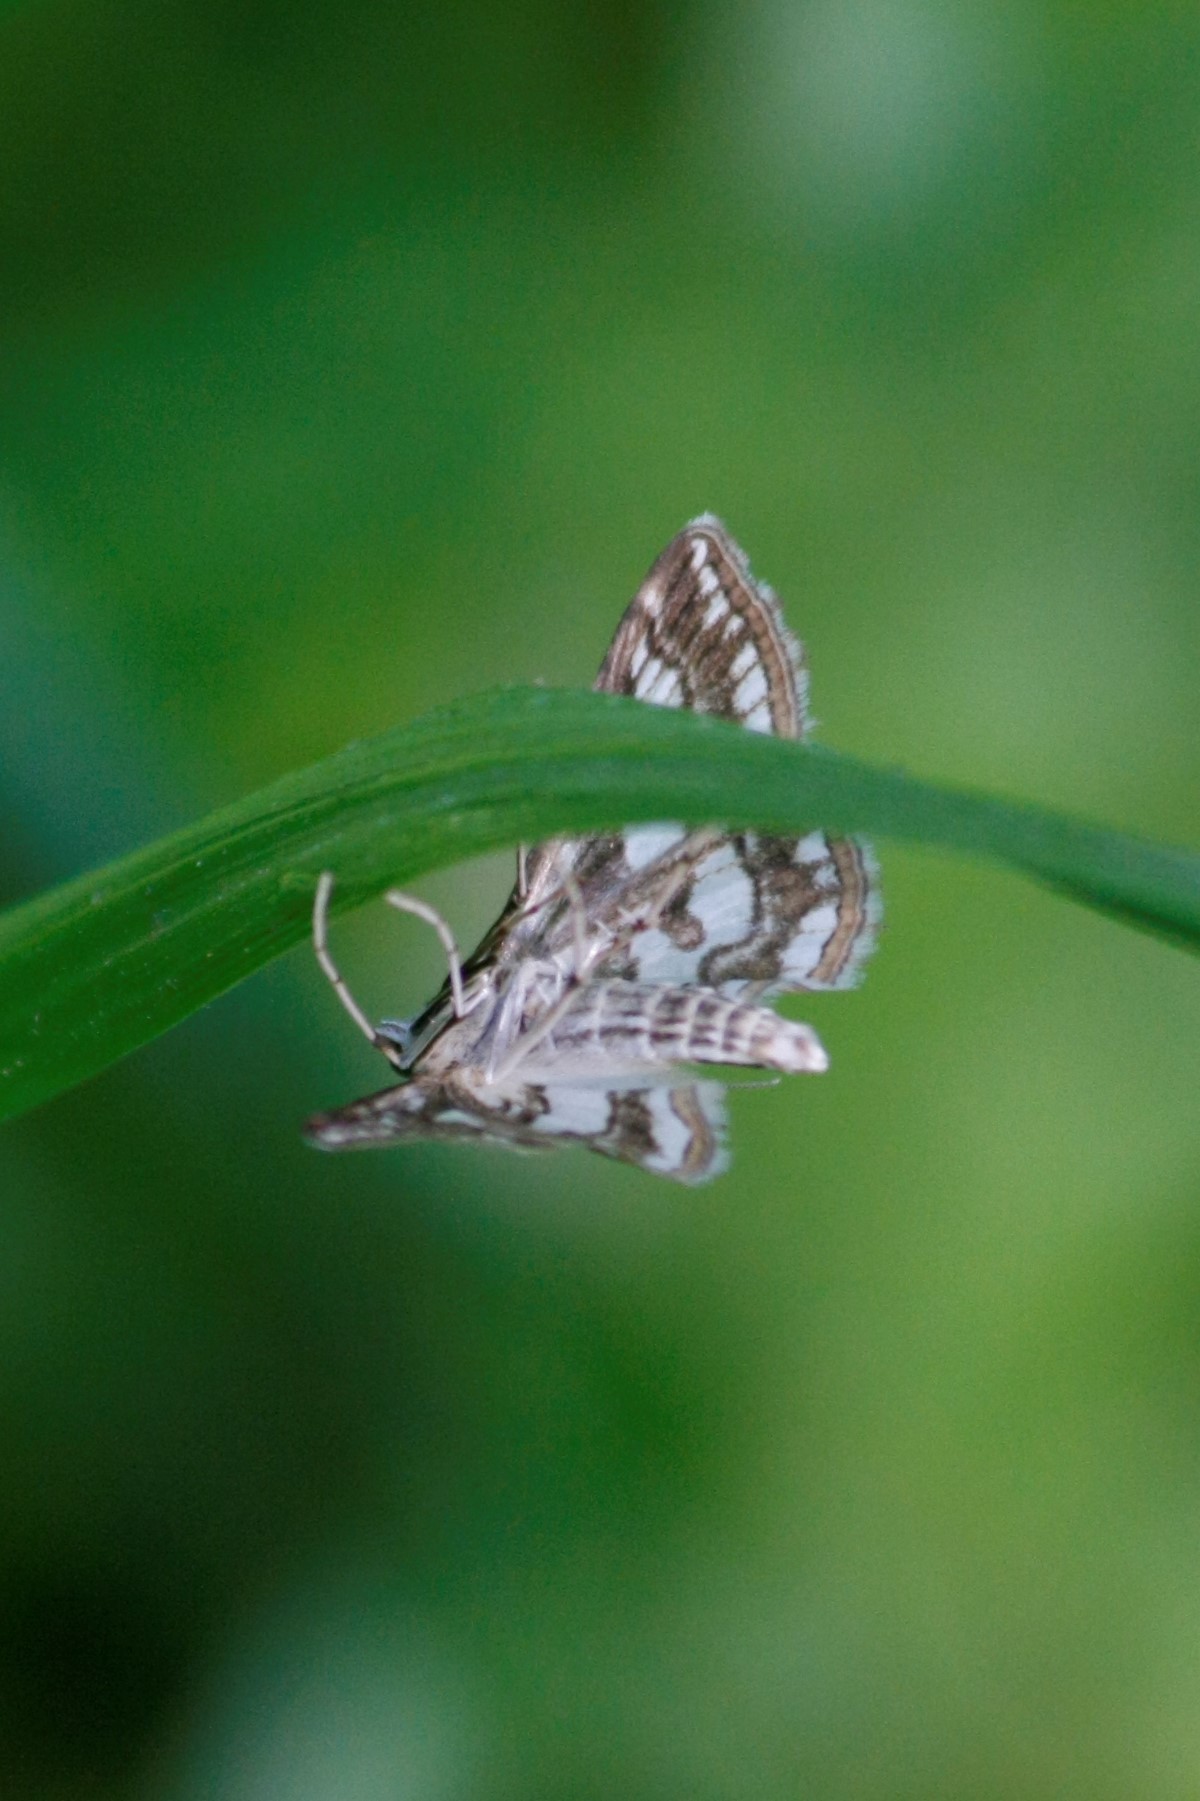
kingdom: Animalia
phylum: Arthropoda
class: Insecta
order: Lepidoptera
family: Crambidae
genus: Elophila
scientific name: Elophila nymphaeata
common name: Brown china-mark
